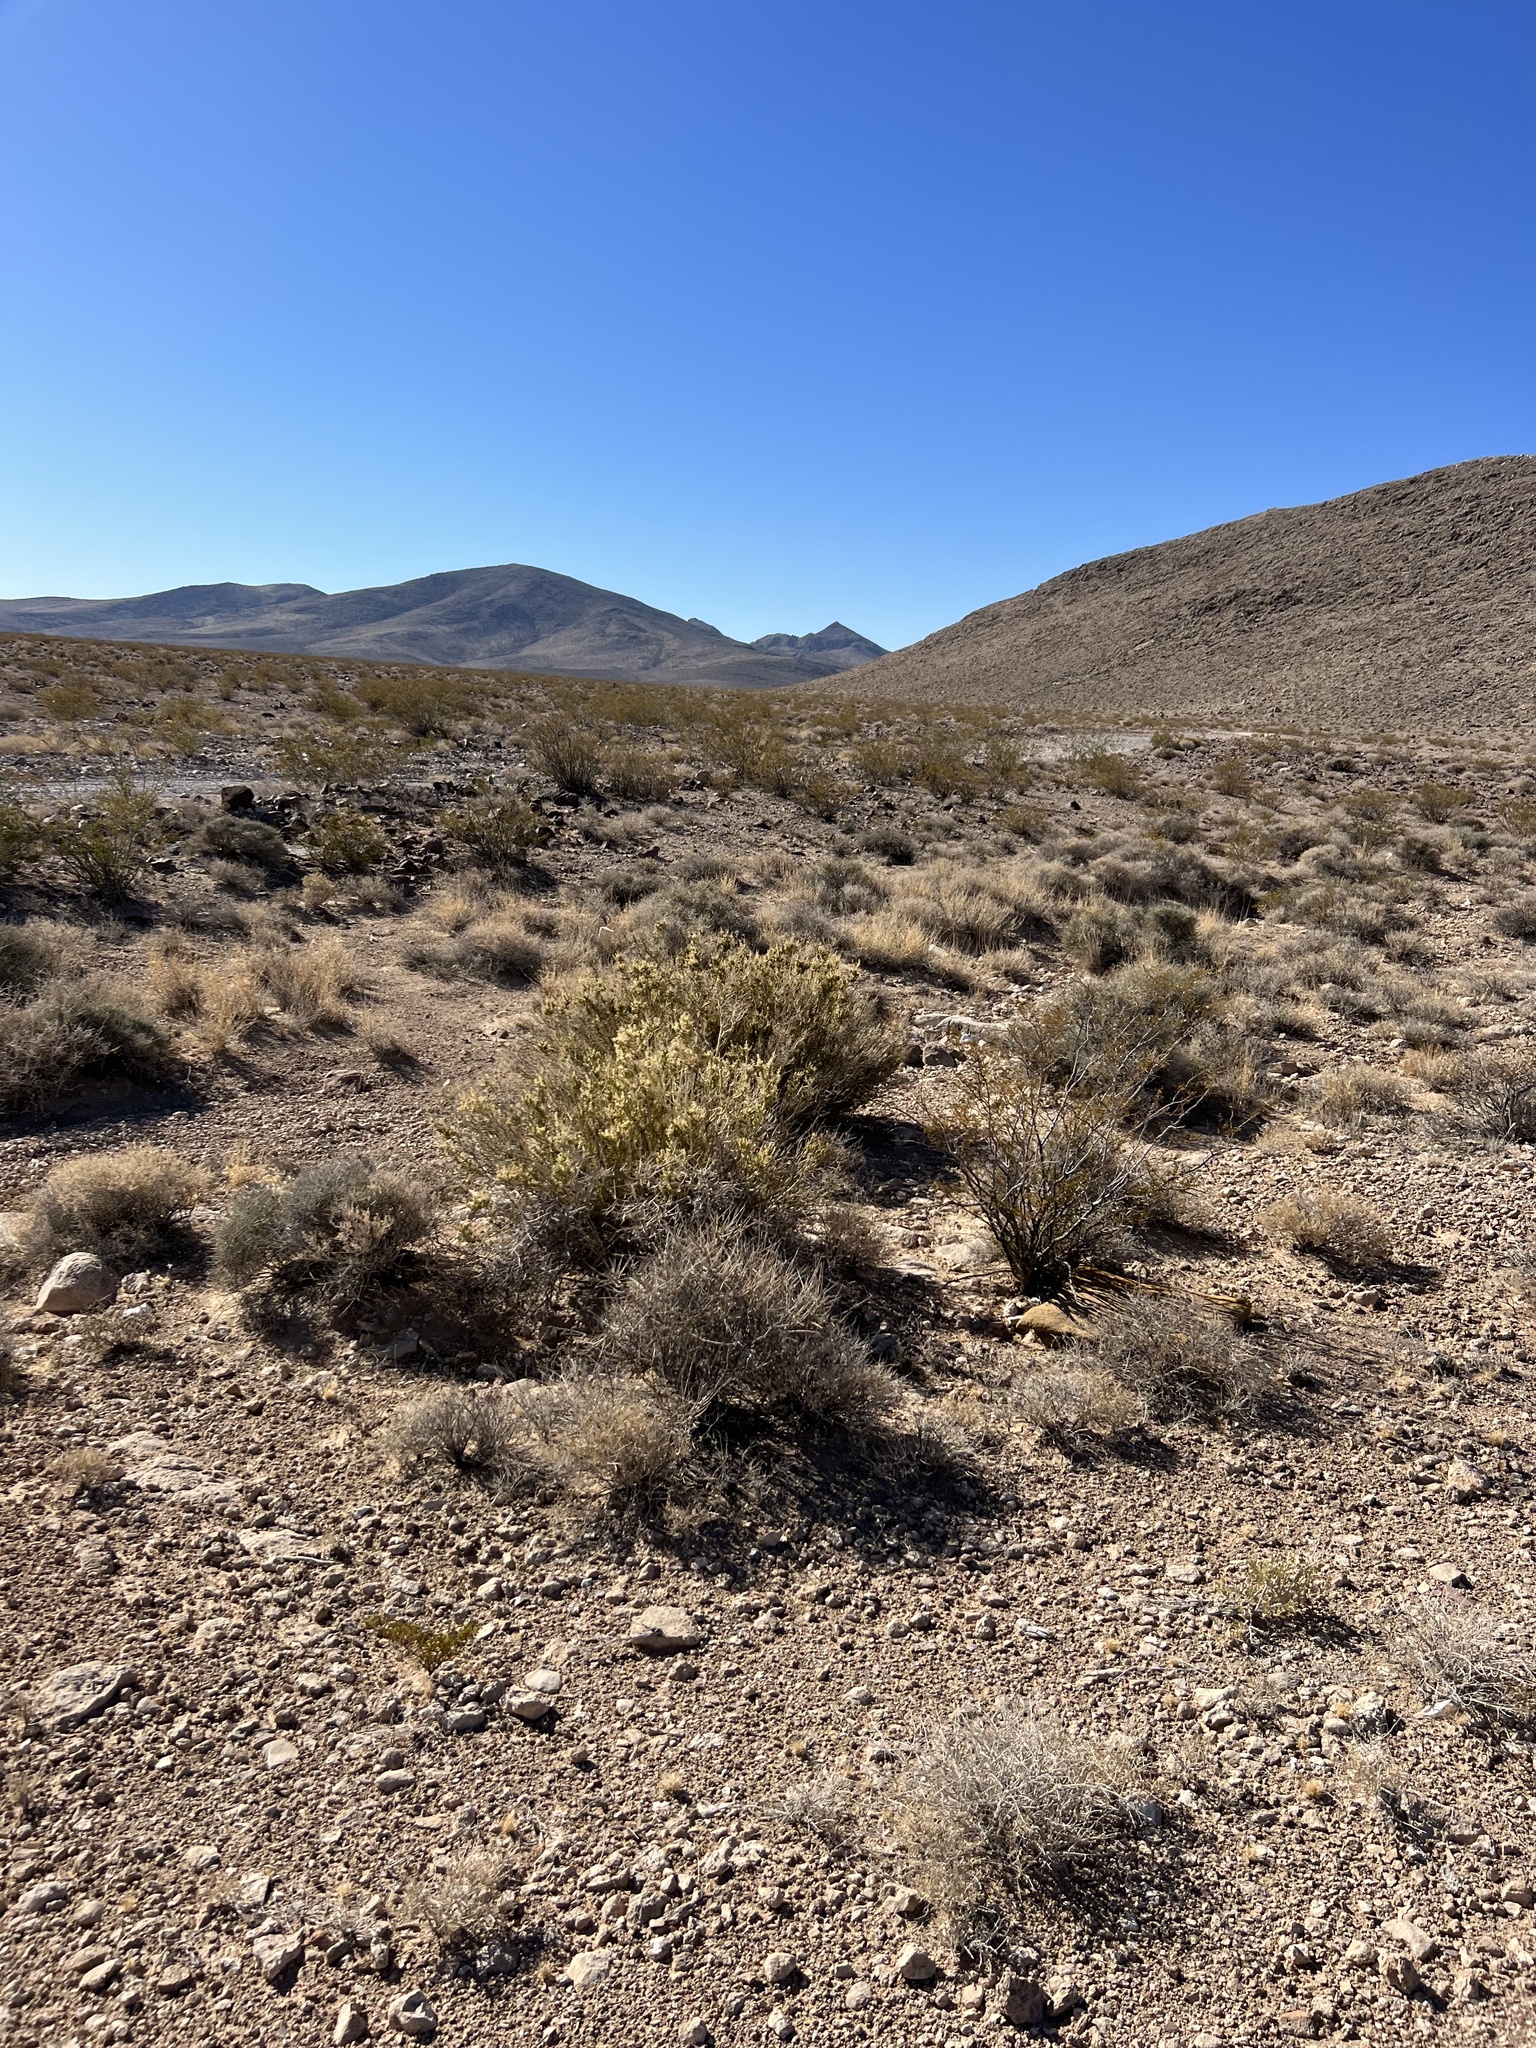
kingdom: Plantae
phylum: Tracheophyta
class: Magnoliopsida
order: Celastrales
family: Celastraceae
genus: Mortonia
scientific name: Mortonia utahensis
